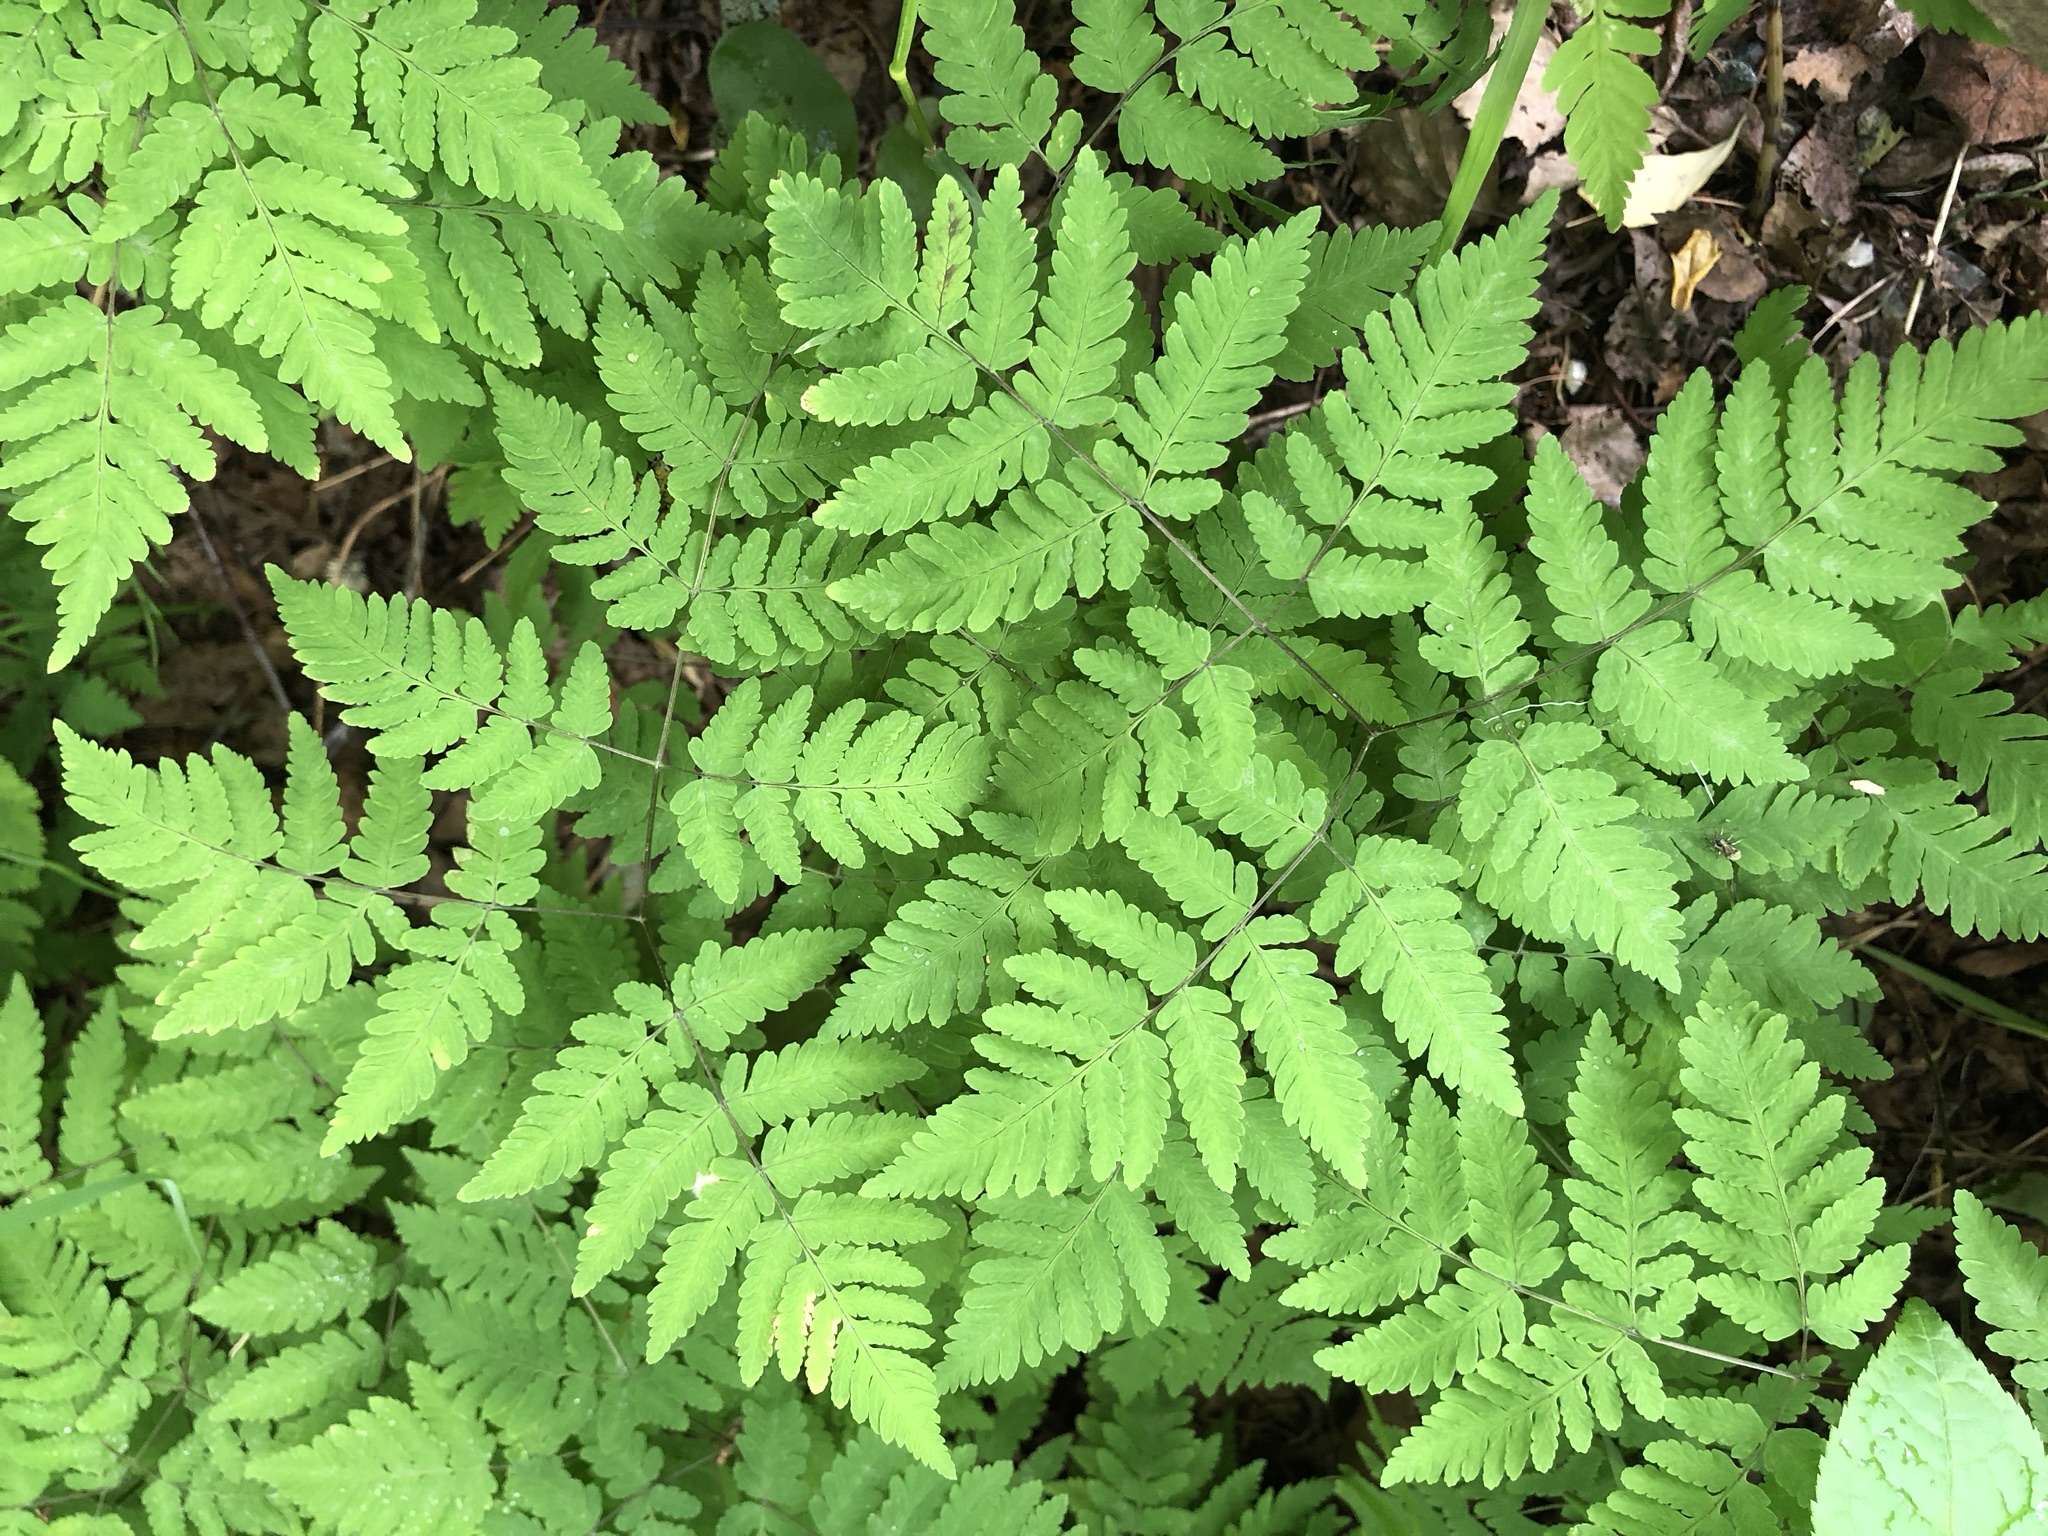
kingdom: Plantae
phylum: Tracheophyta
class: Polypodiopsida
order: Polypodiales
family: Cystopteridaceae
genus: Gymnocarpium
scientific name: Gymnocarpium dryopteris
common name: Oak fern
